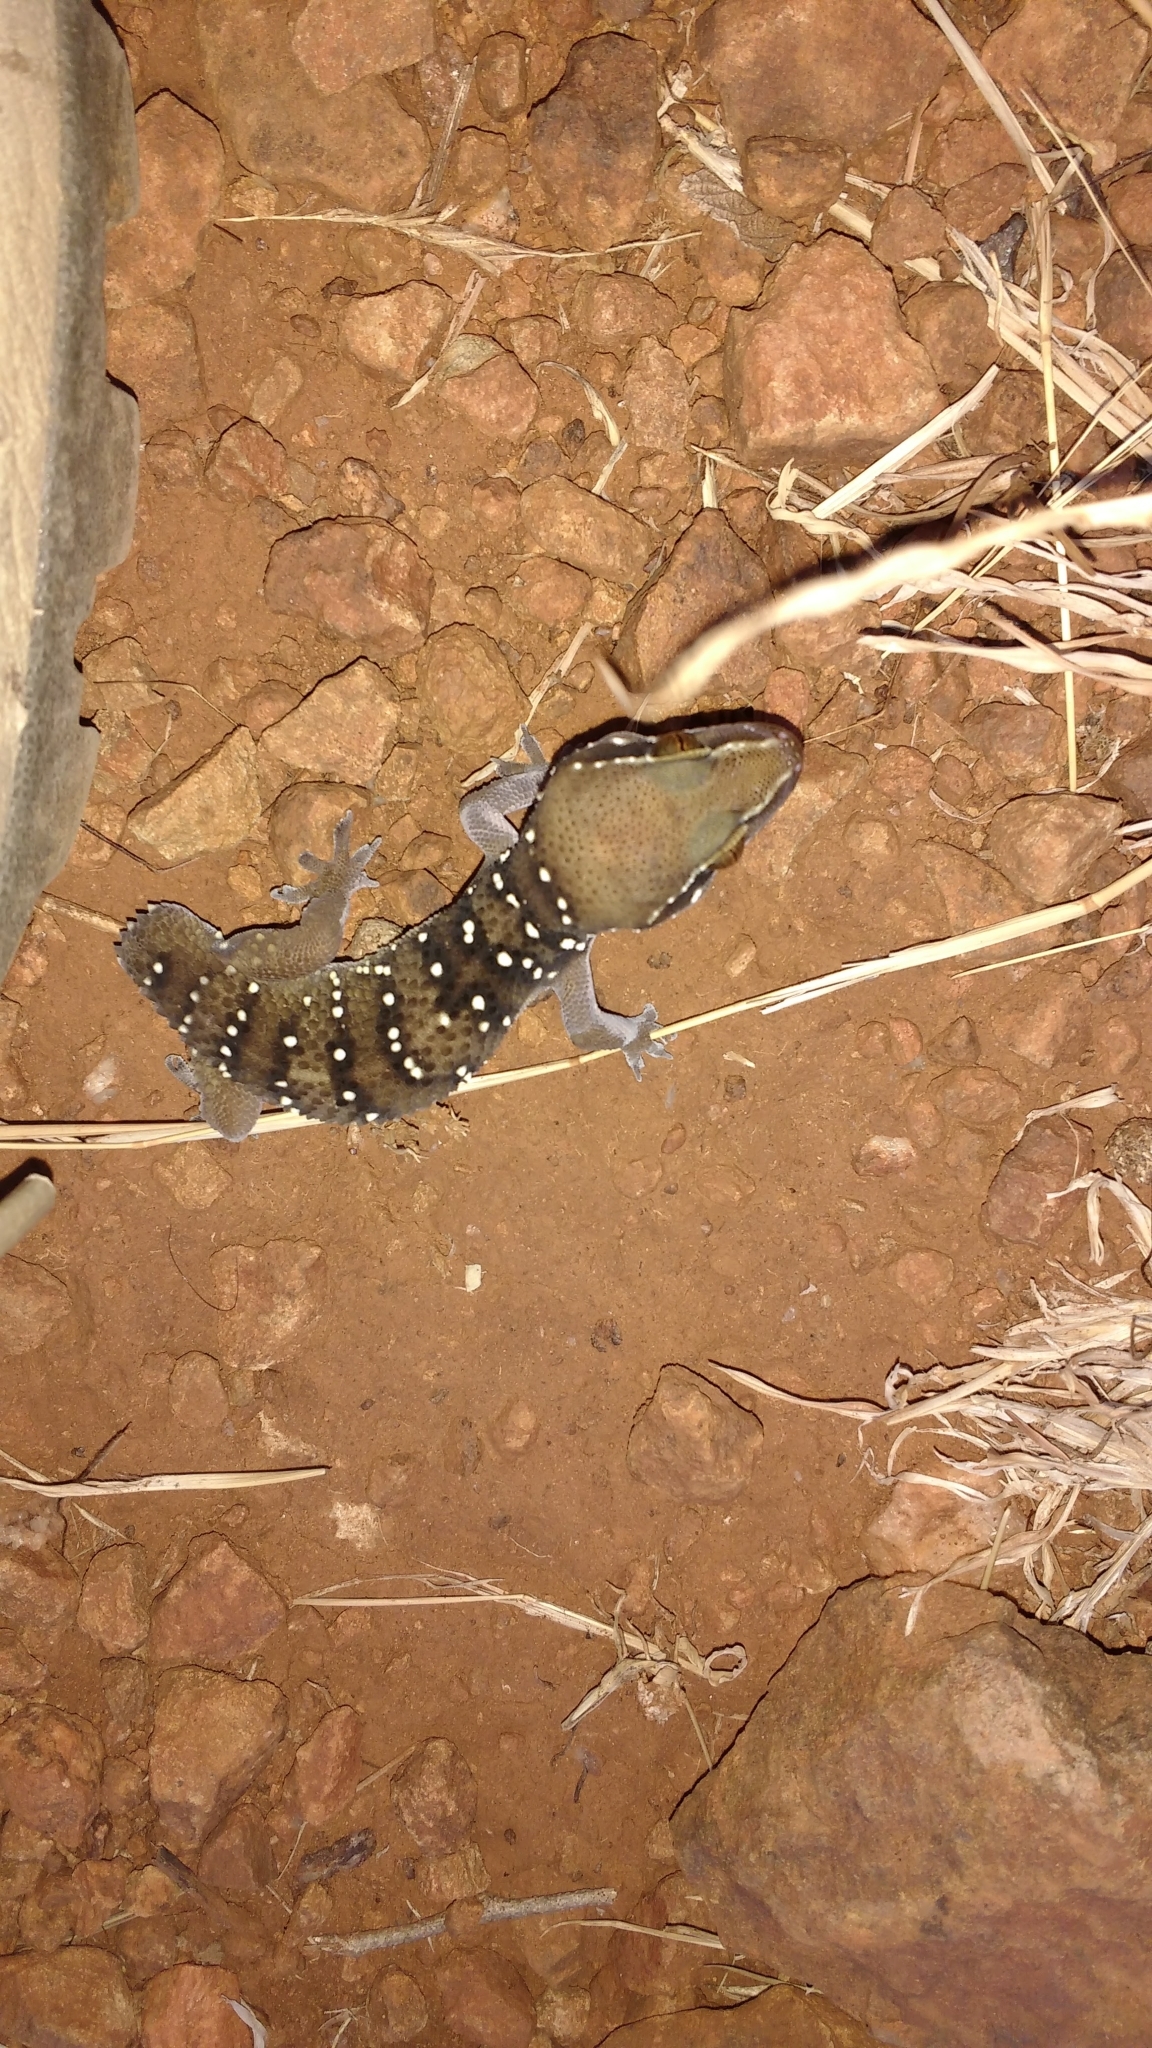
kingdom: Animalia
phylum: Chordata
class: Squamata
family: Gekkonidae
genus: Hemidactylus
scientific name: Hemidactylus triedrus
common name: Blotched house gecko
